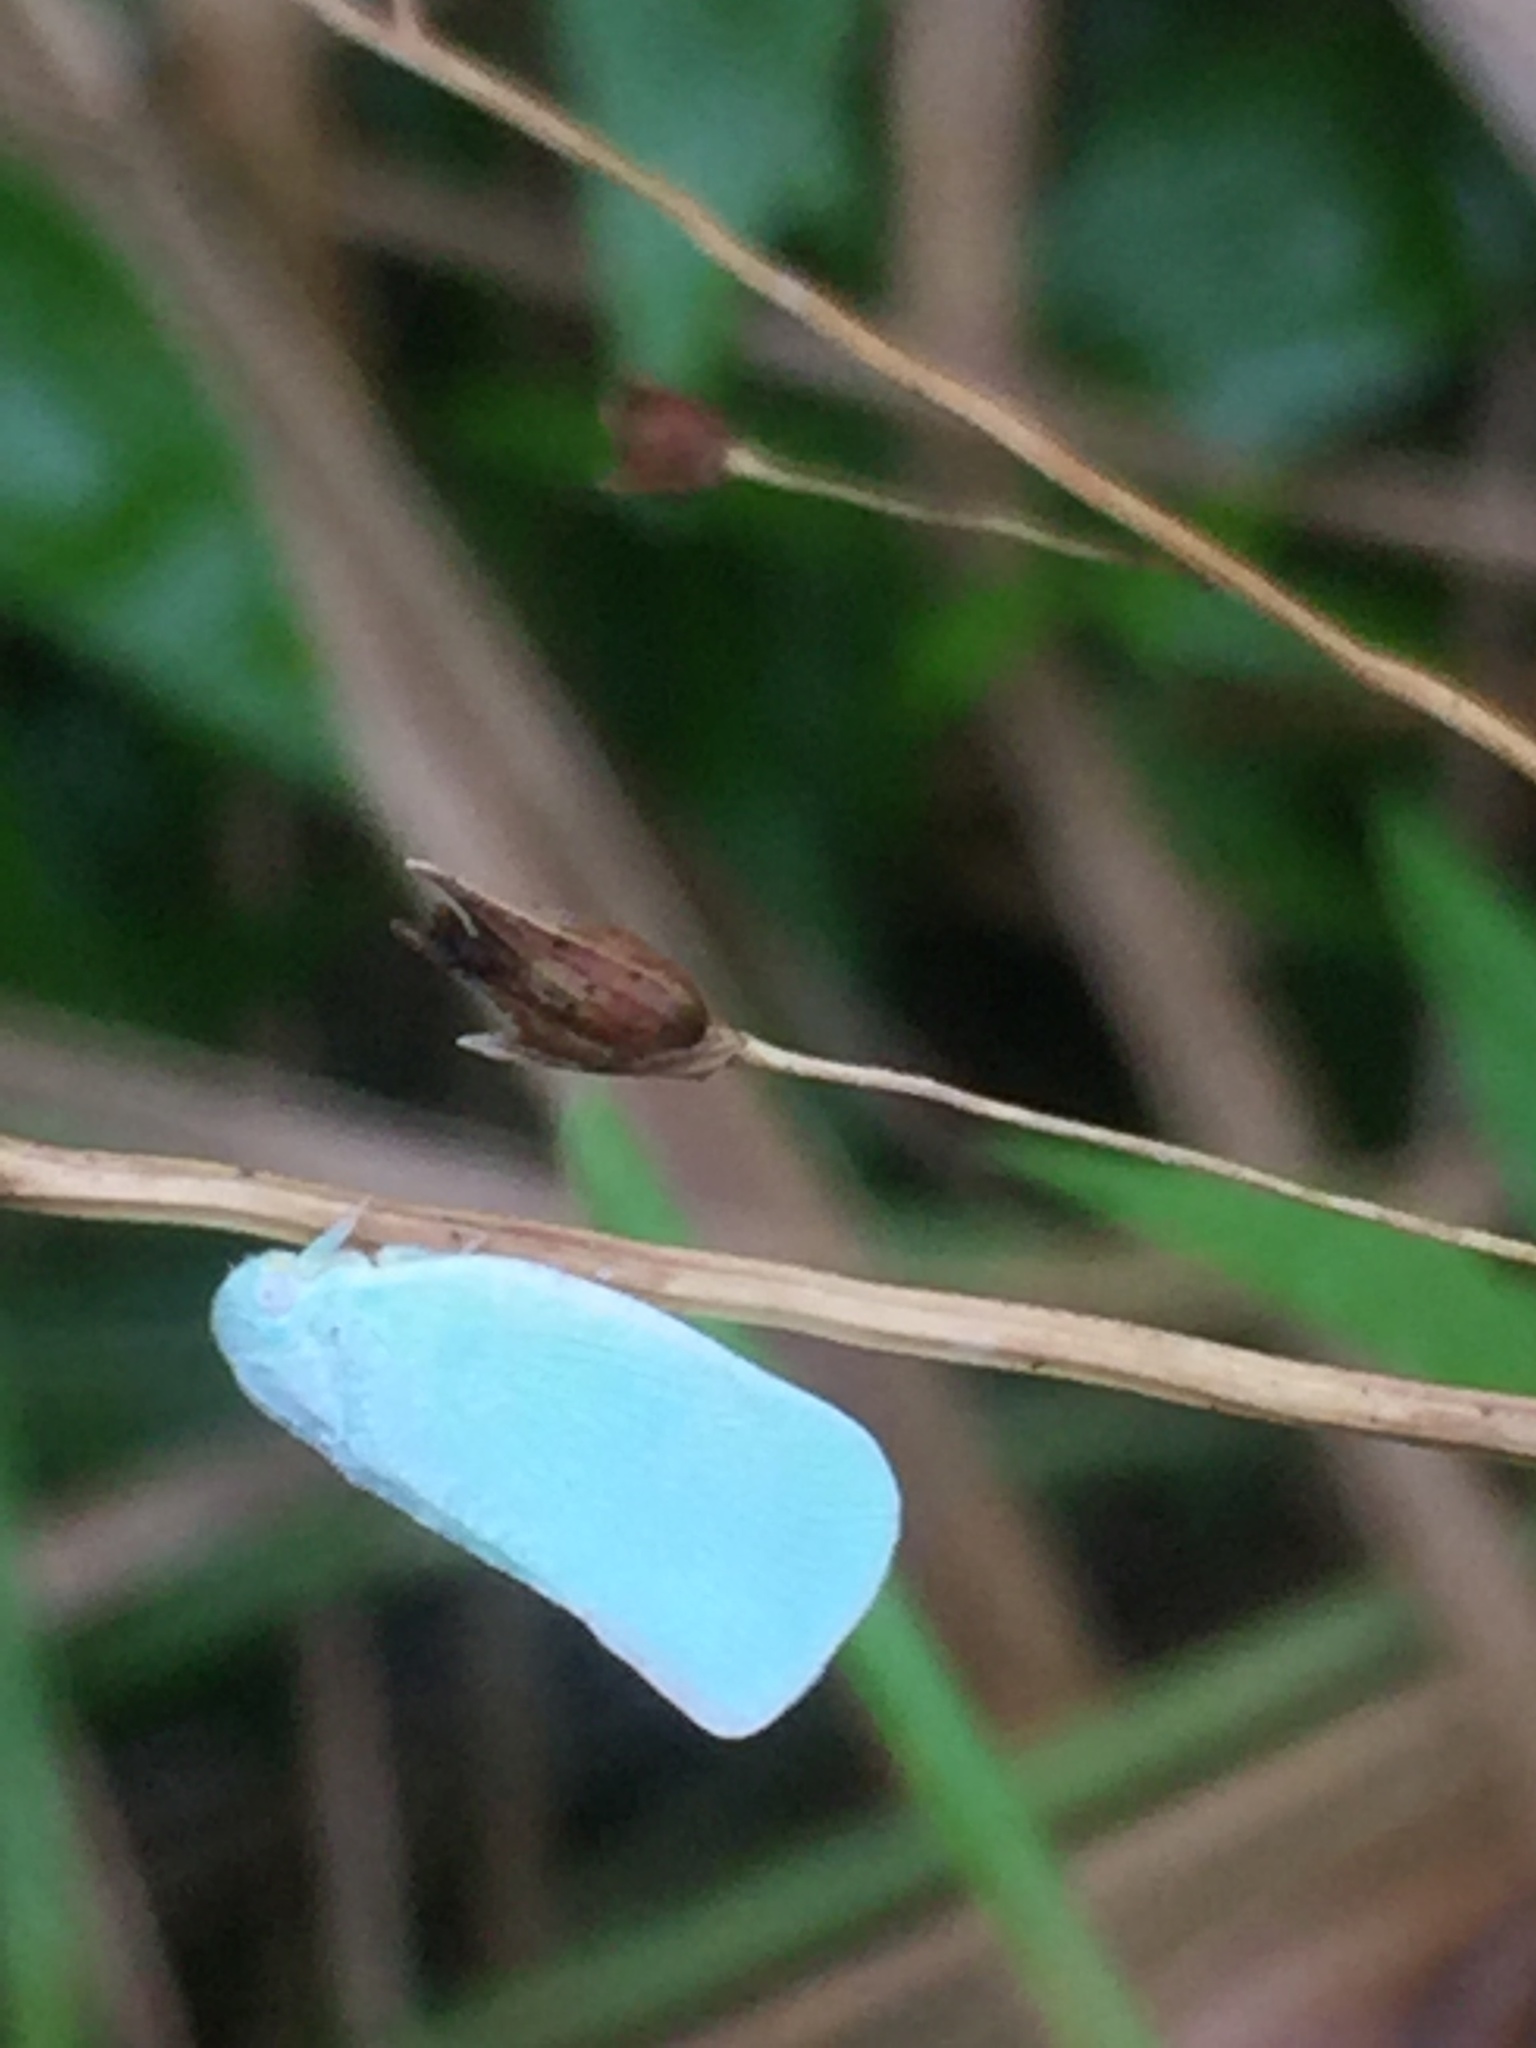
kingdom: Animalia
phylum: Arthropoda
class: Insecta
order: Hemiptera
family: Flatidae
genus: Flatormenis
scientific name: Flatormenis proxima
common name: Northern flatid planthopper
